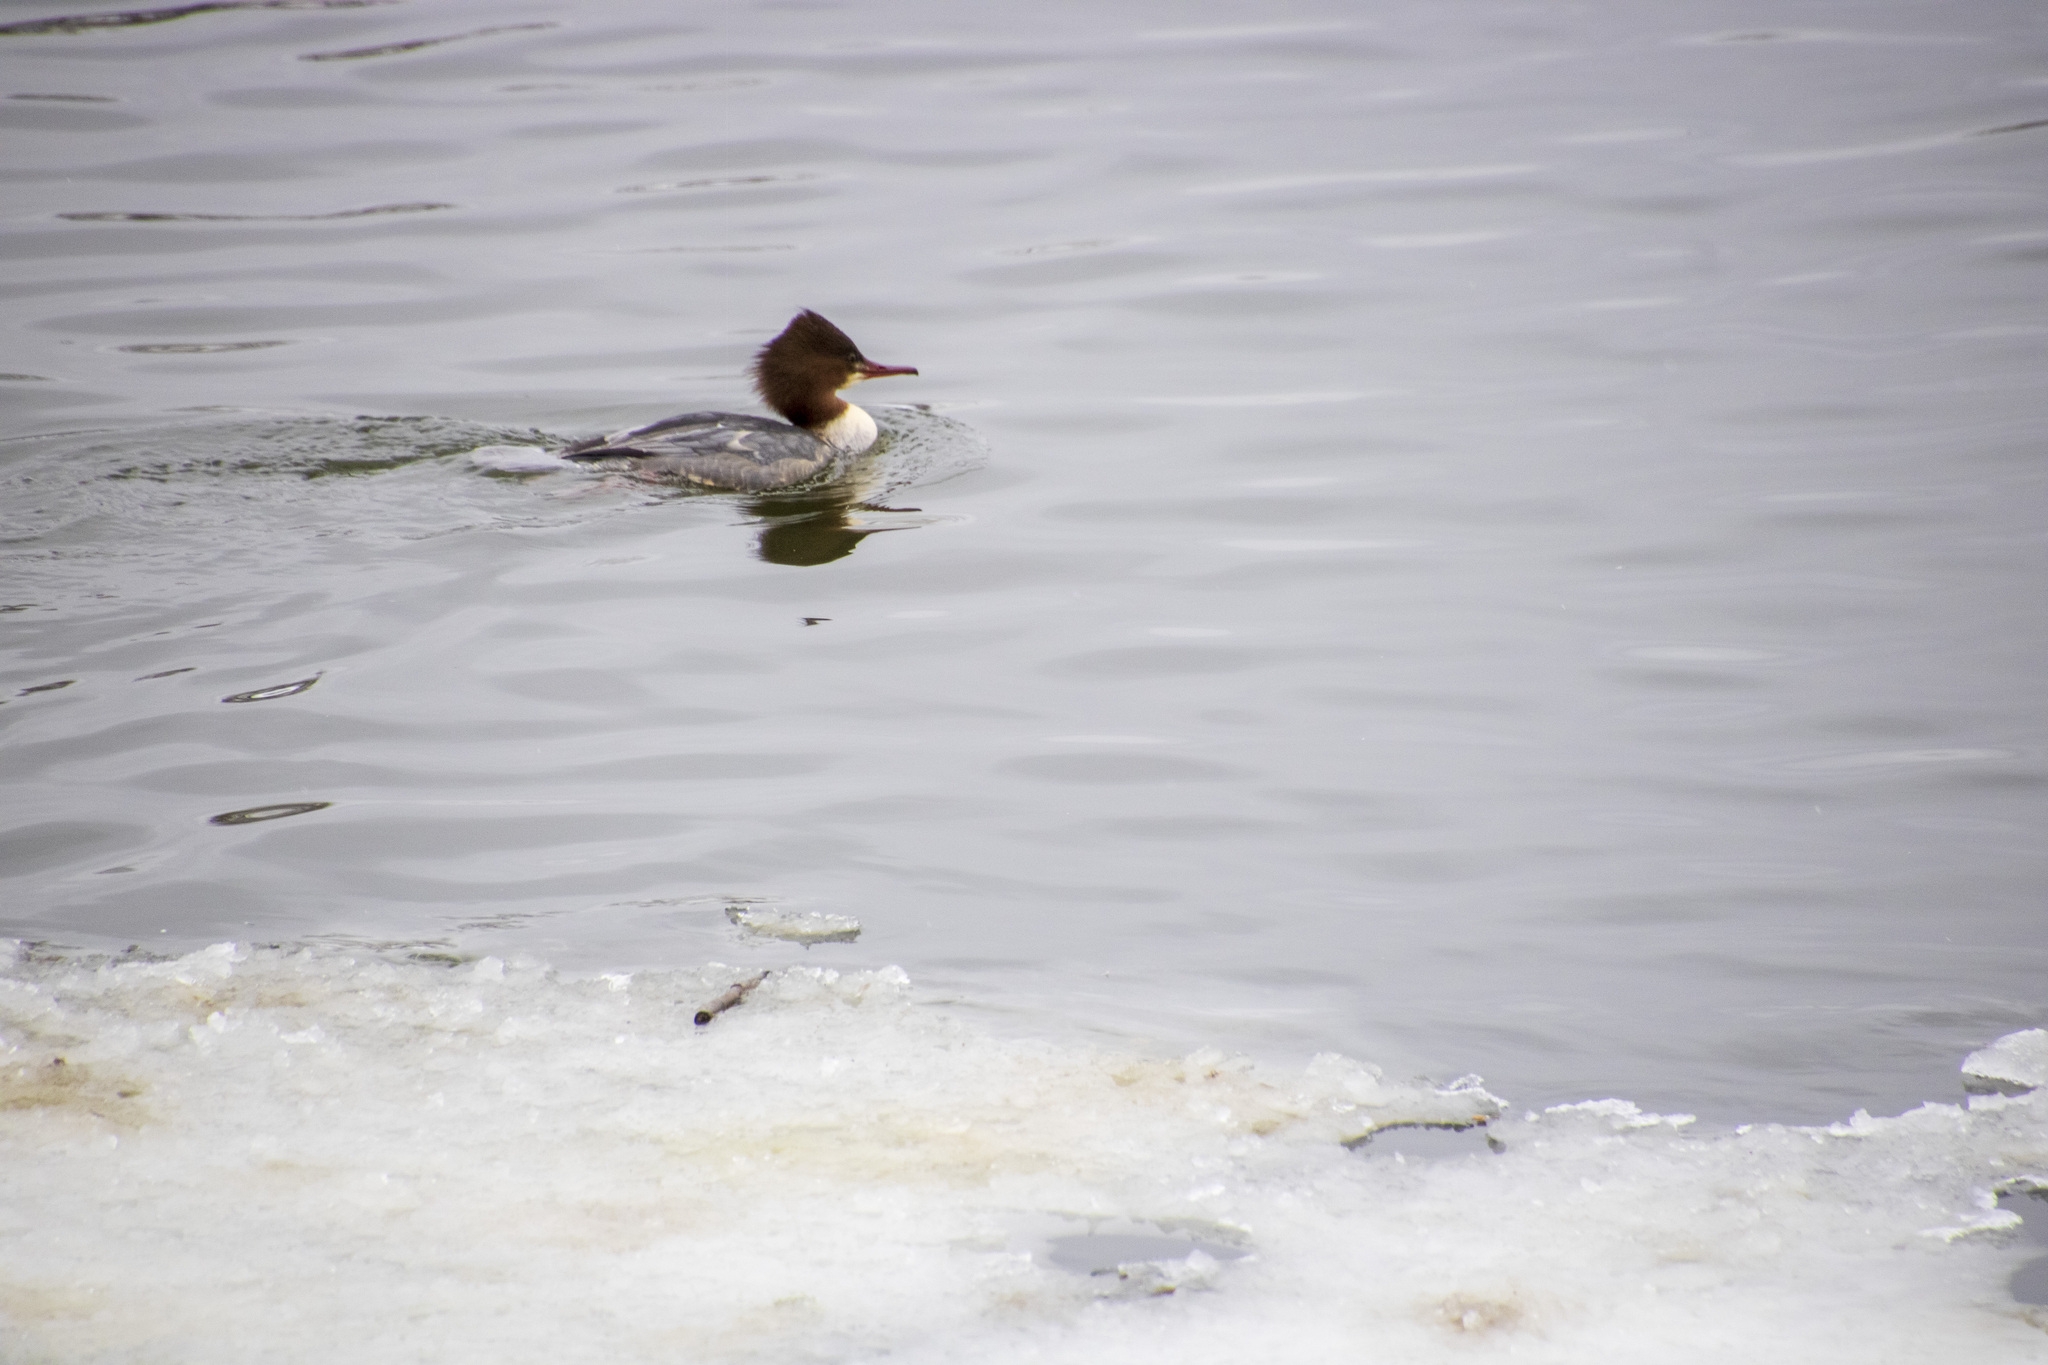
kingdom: Animalia
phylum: Chordata
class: Aves
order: Anseriformes
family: Anatidae
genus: Mergus
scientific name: Mergus merganser
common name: Common merganser
